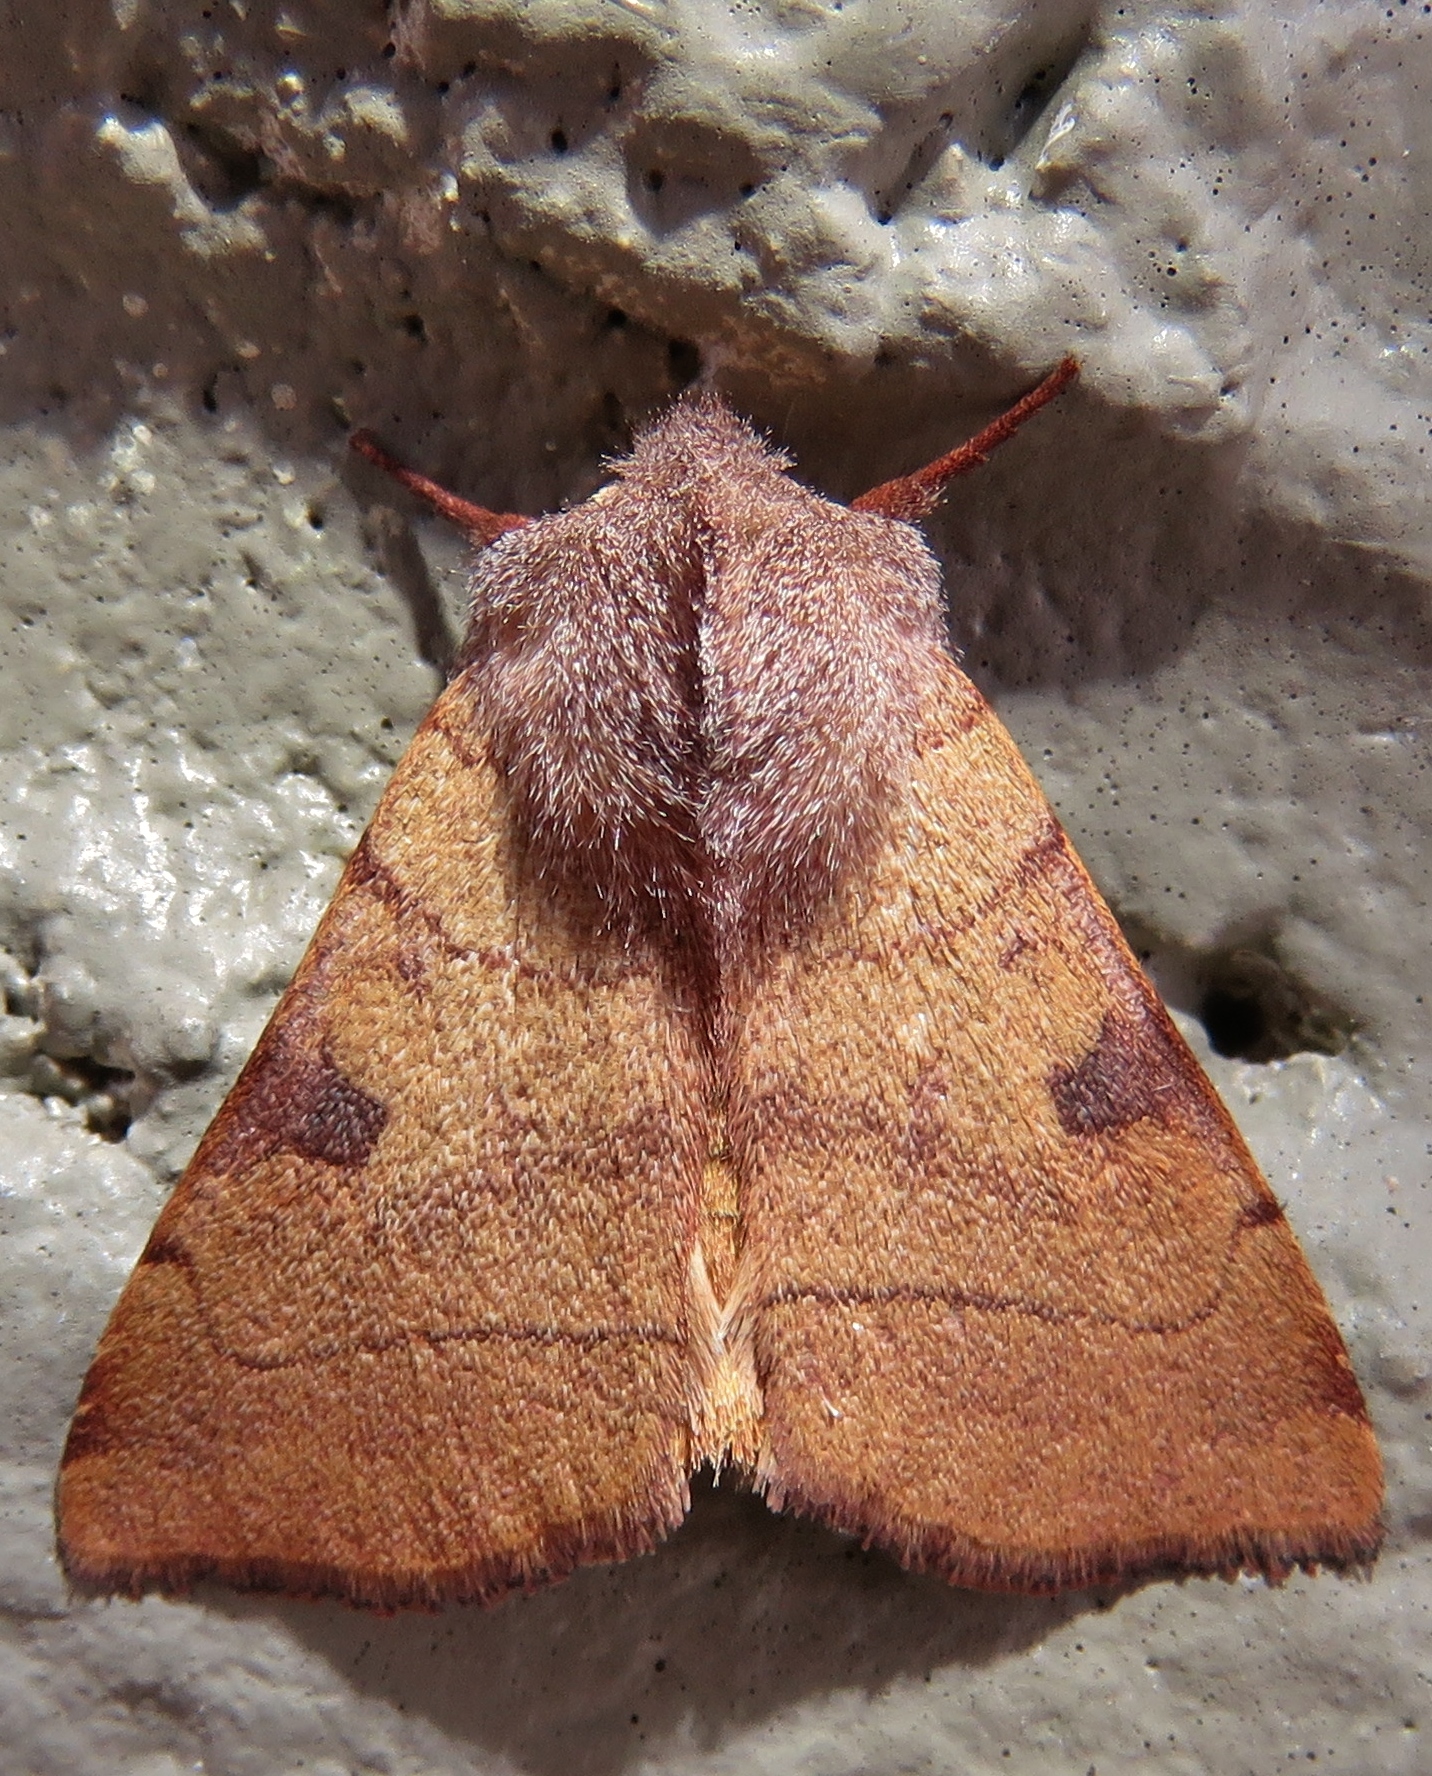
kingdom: Animalia
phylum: Arthropoda
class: Insecta
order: Lepidoptera
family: Noctuidae
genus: Choephora
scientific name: Choephora fungorum
